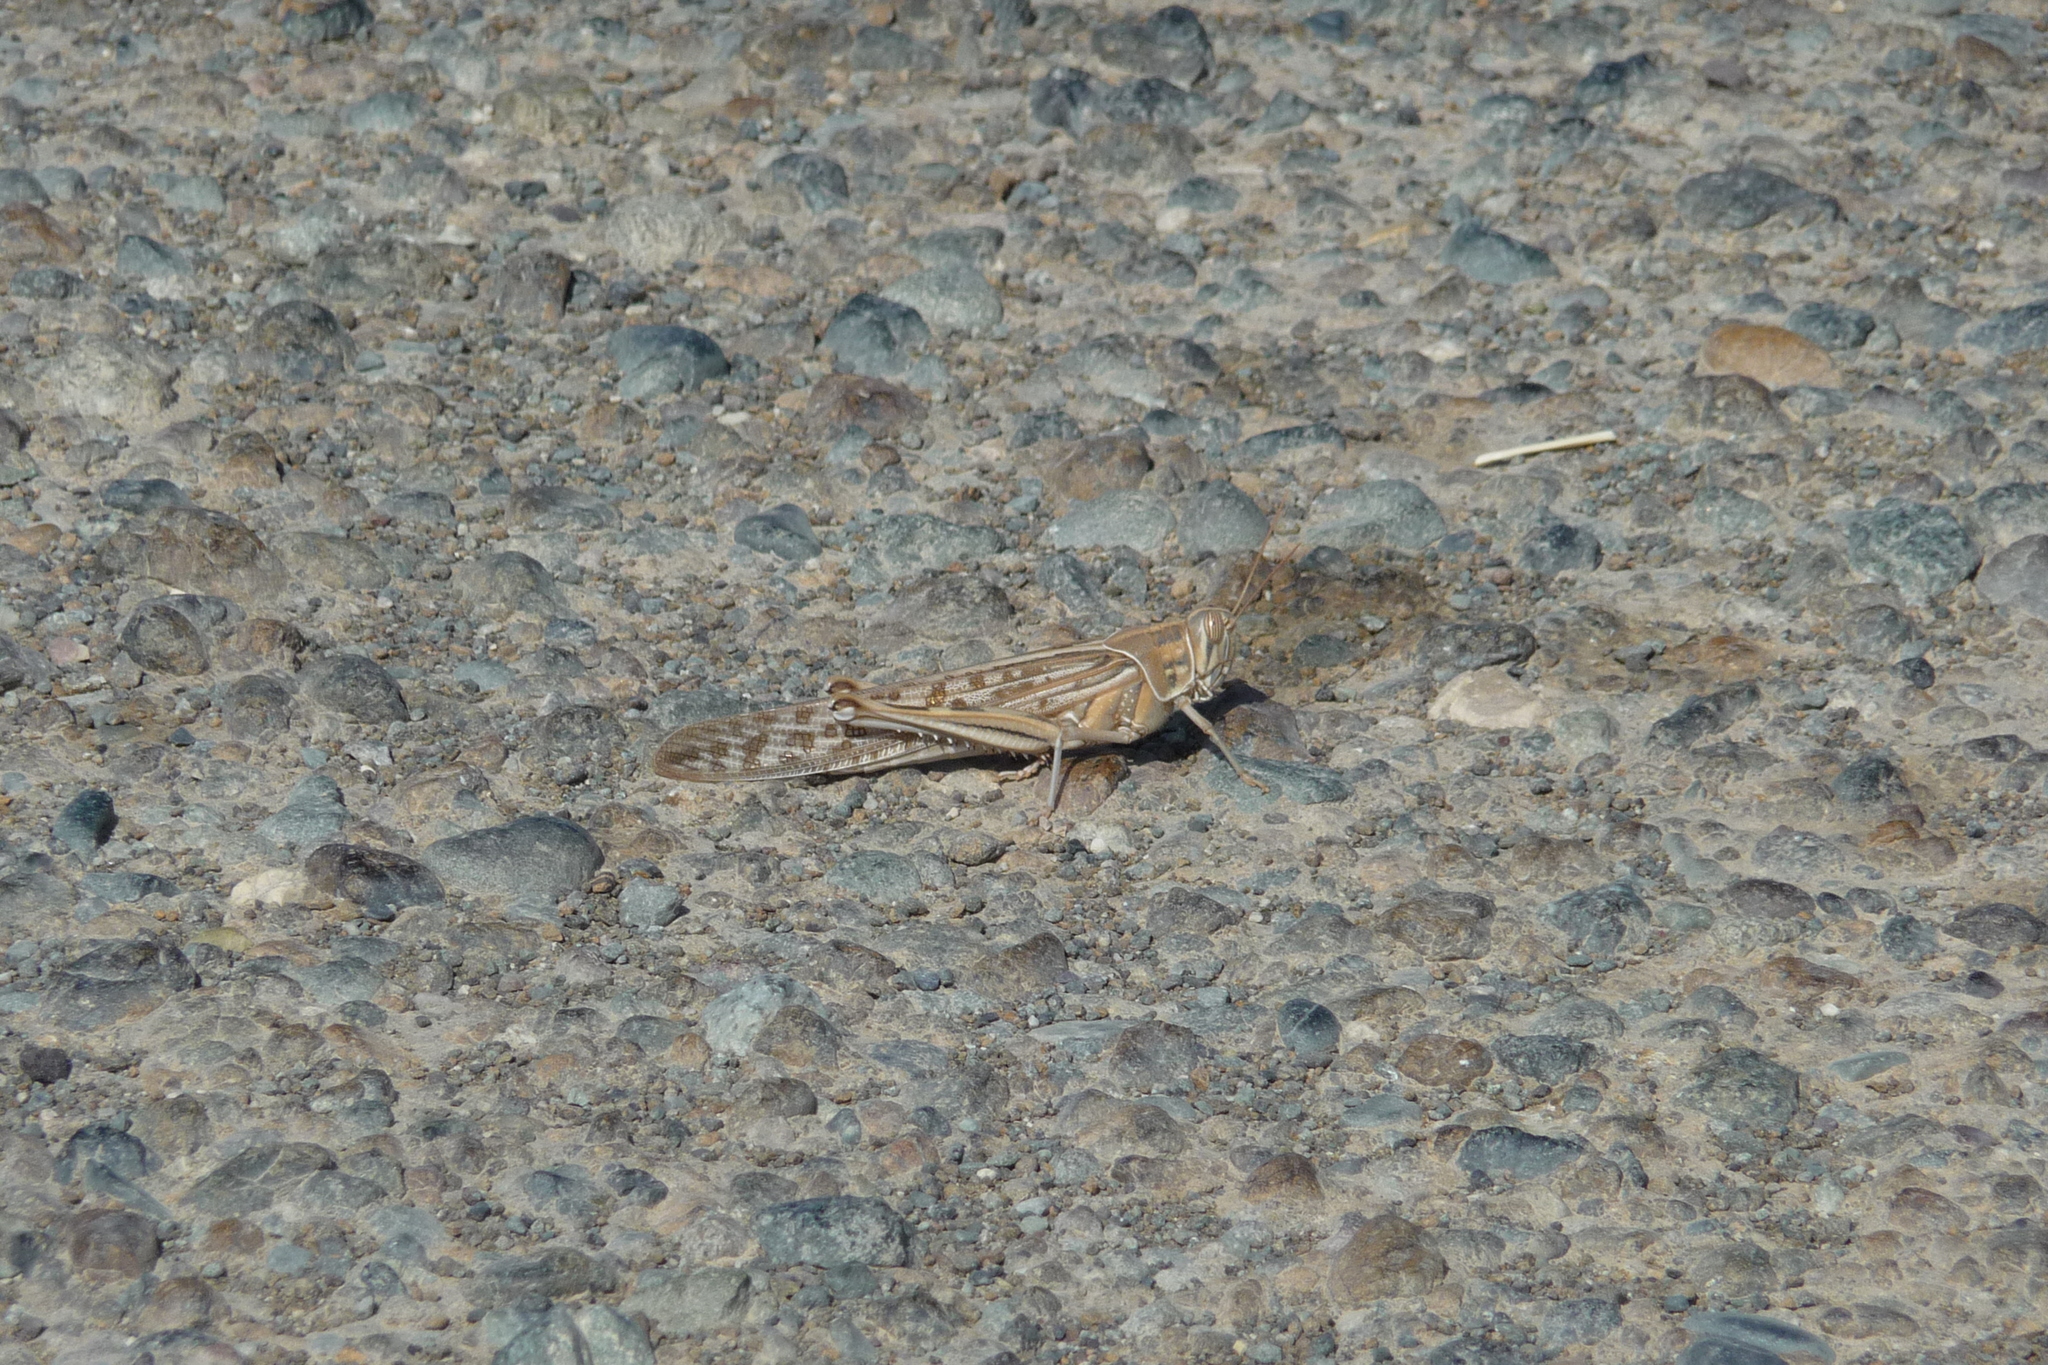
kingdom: Animalia
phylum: Arthropoda
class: Insecta
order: Orthoptera
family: Acrididae
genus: Schistocerca
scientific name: Schistocerca gregaria
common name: Desert locust
